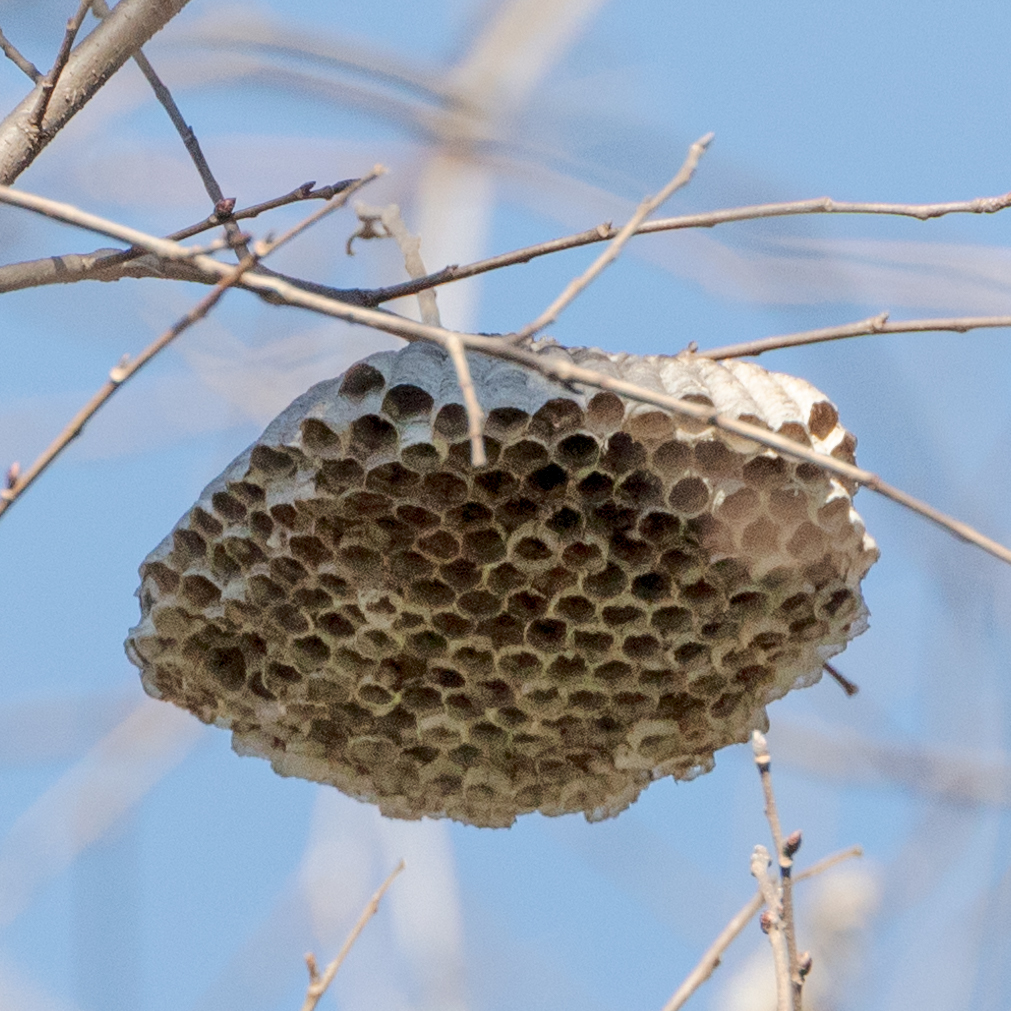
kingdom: Animalia
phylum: Arthropoda
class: Insecta
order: Hymenoptera
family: Eumenidae
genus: Polistes
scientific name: Polistes
